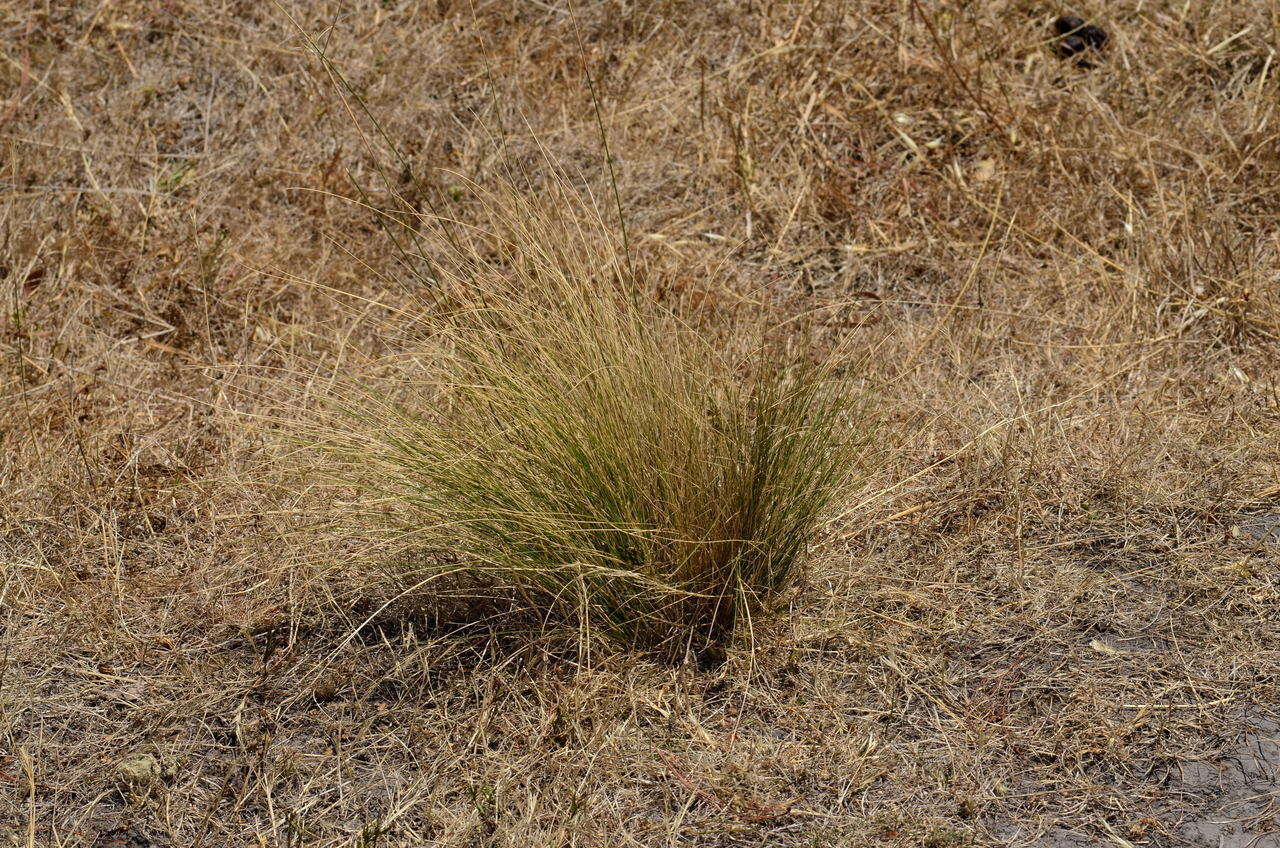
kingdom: Plantae
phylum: Tracheophyta
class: Liliopsida
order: Poales
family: Poaceae
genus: Nassella
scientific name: Nassella trichotoma
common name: Serrated tussock grass
